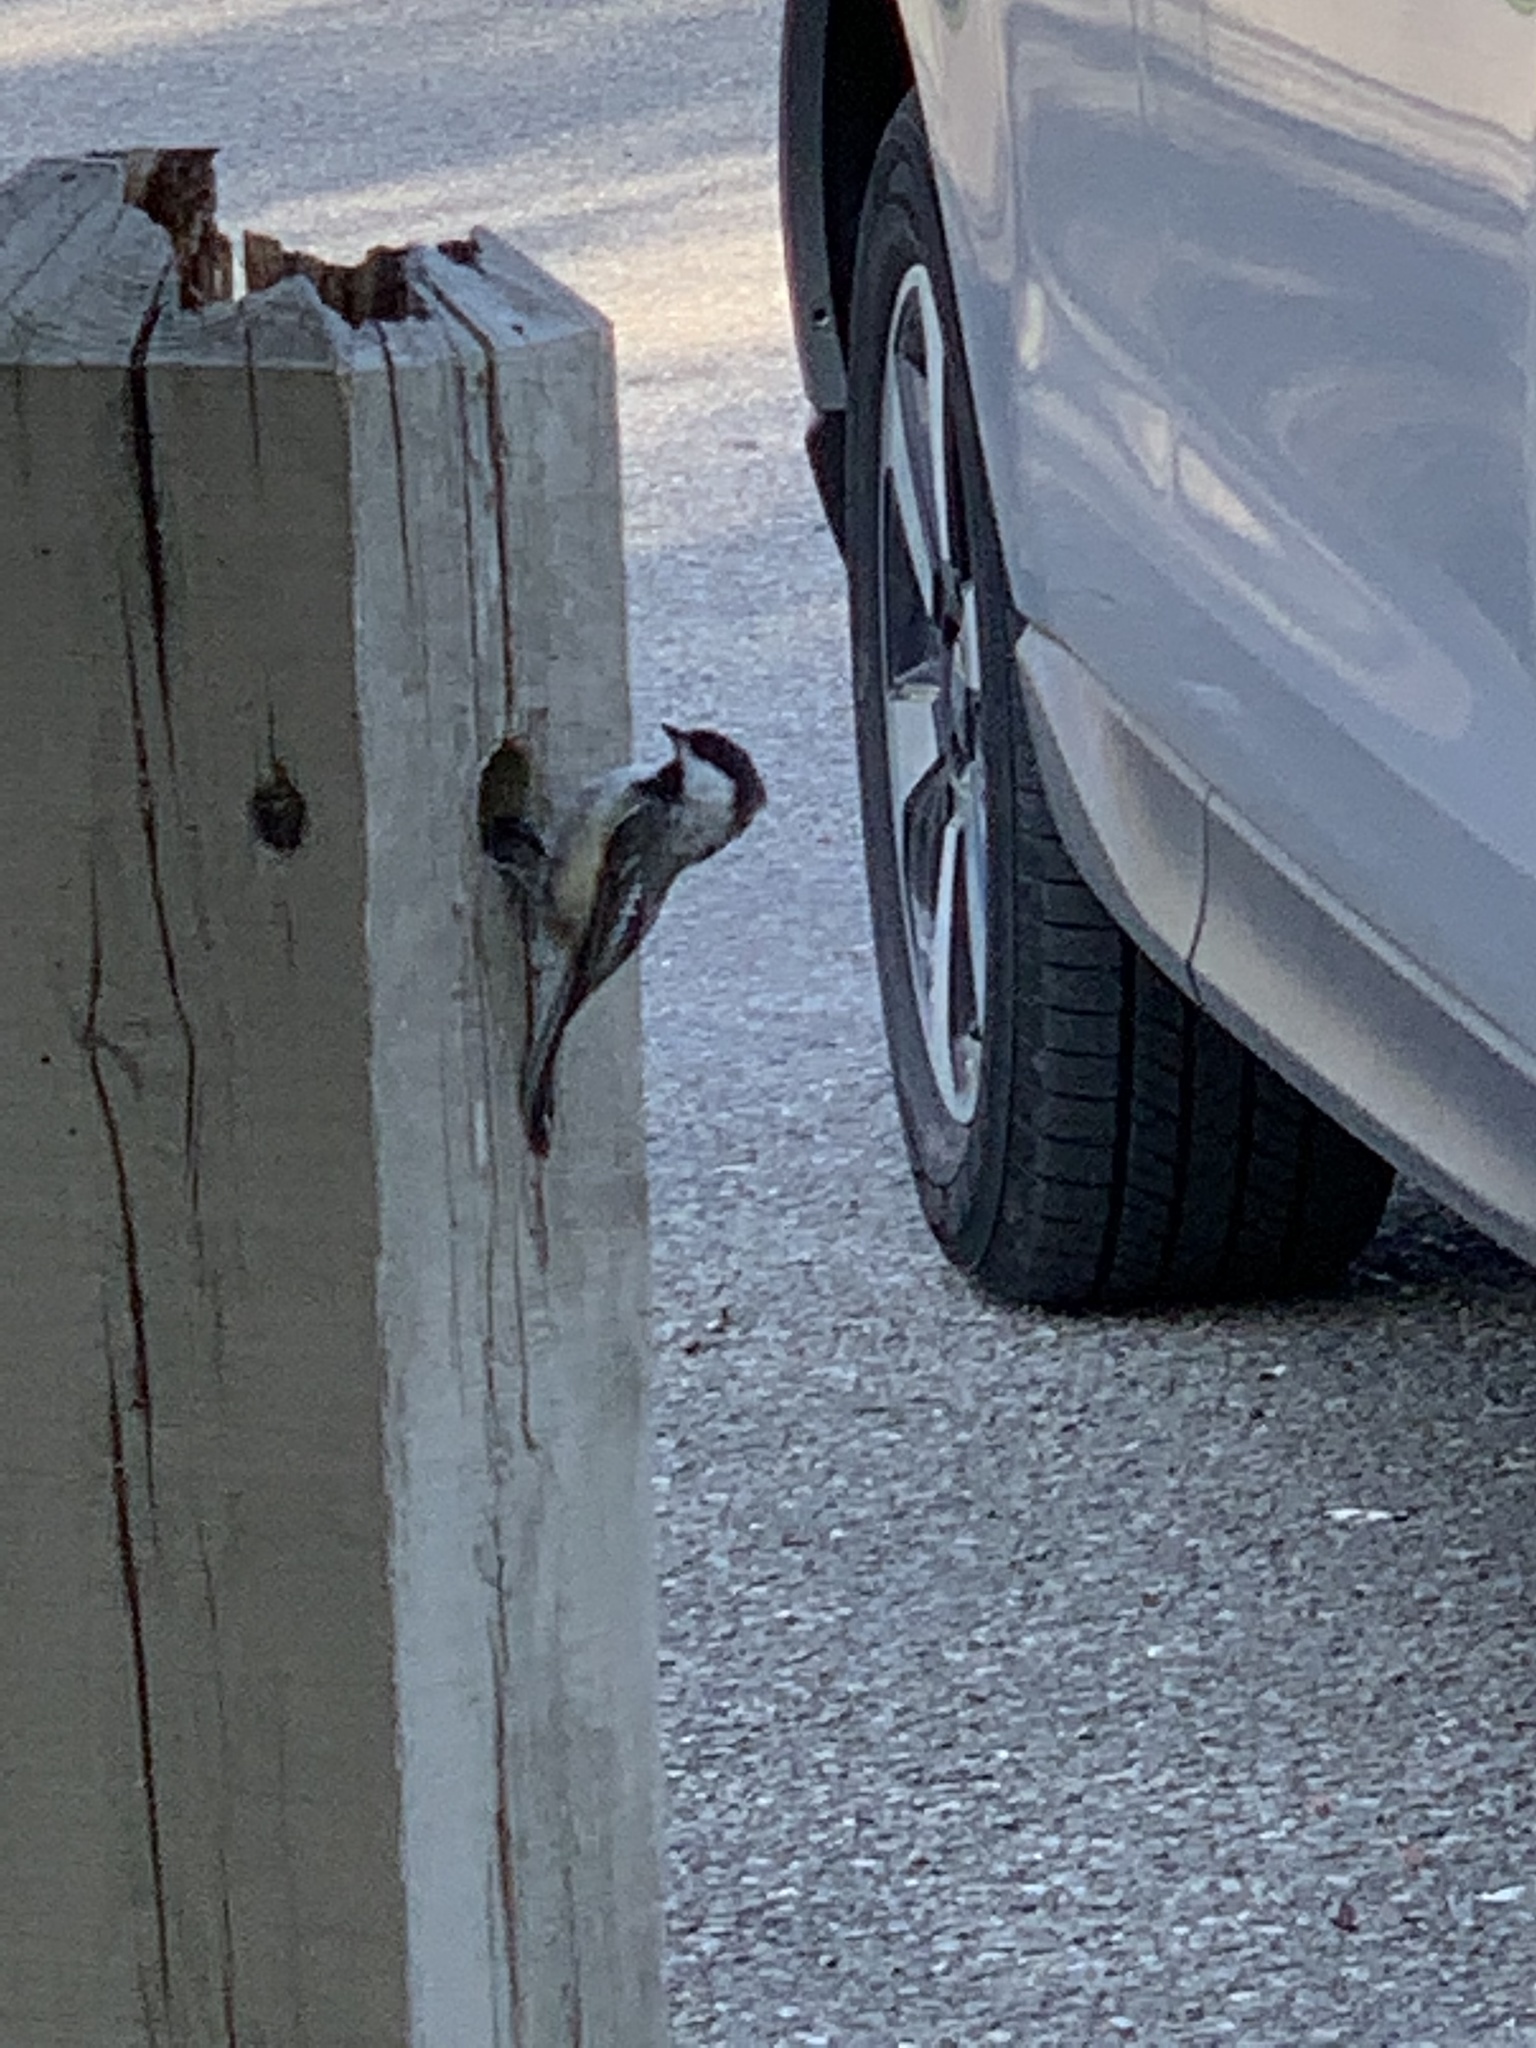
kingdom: Animalia
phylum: Chordata
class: Aves
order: Passeriformes
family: Paridae
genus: Poecile
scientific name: Poecile atricapillus
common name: Black-capped chickadee
